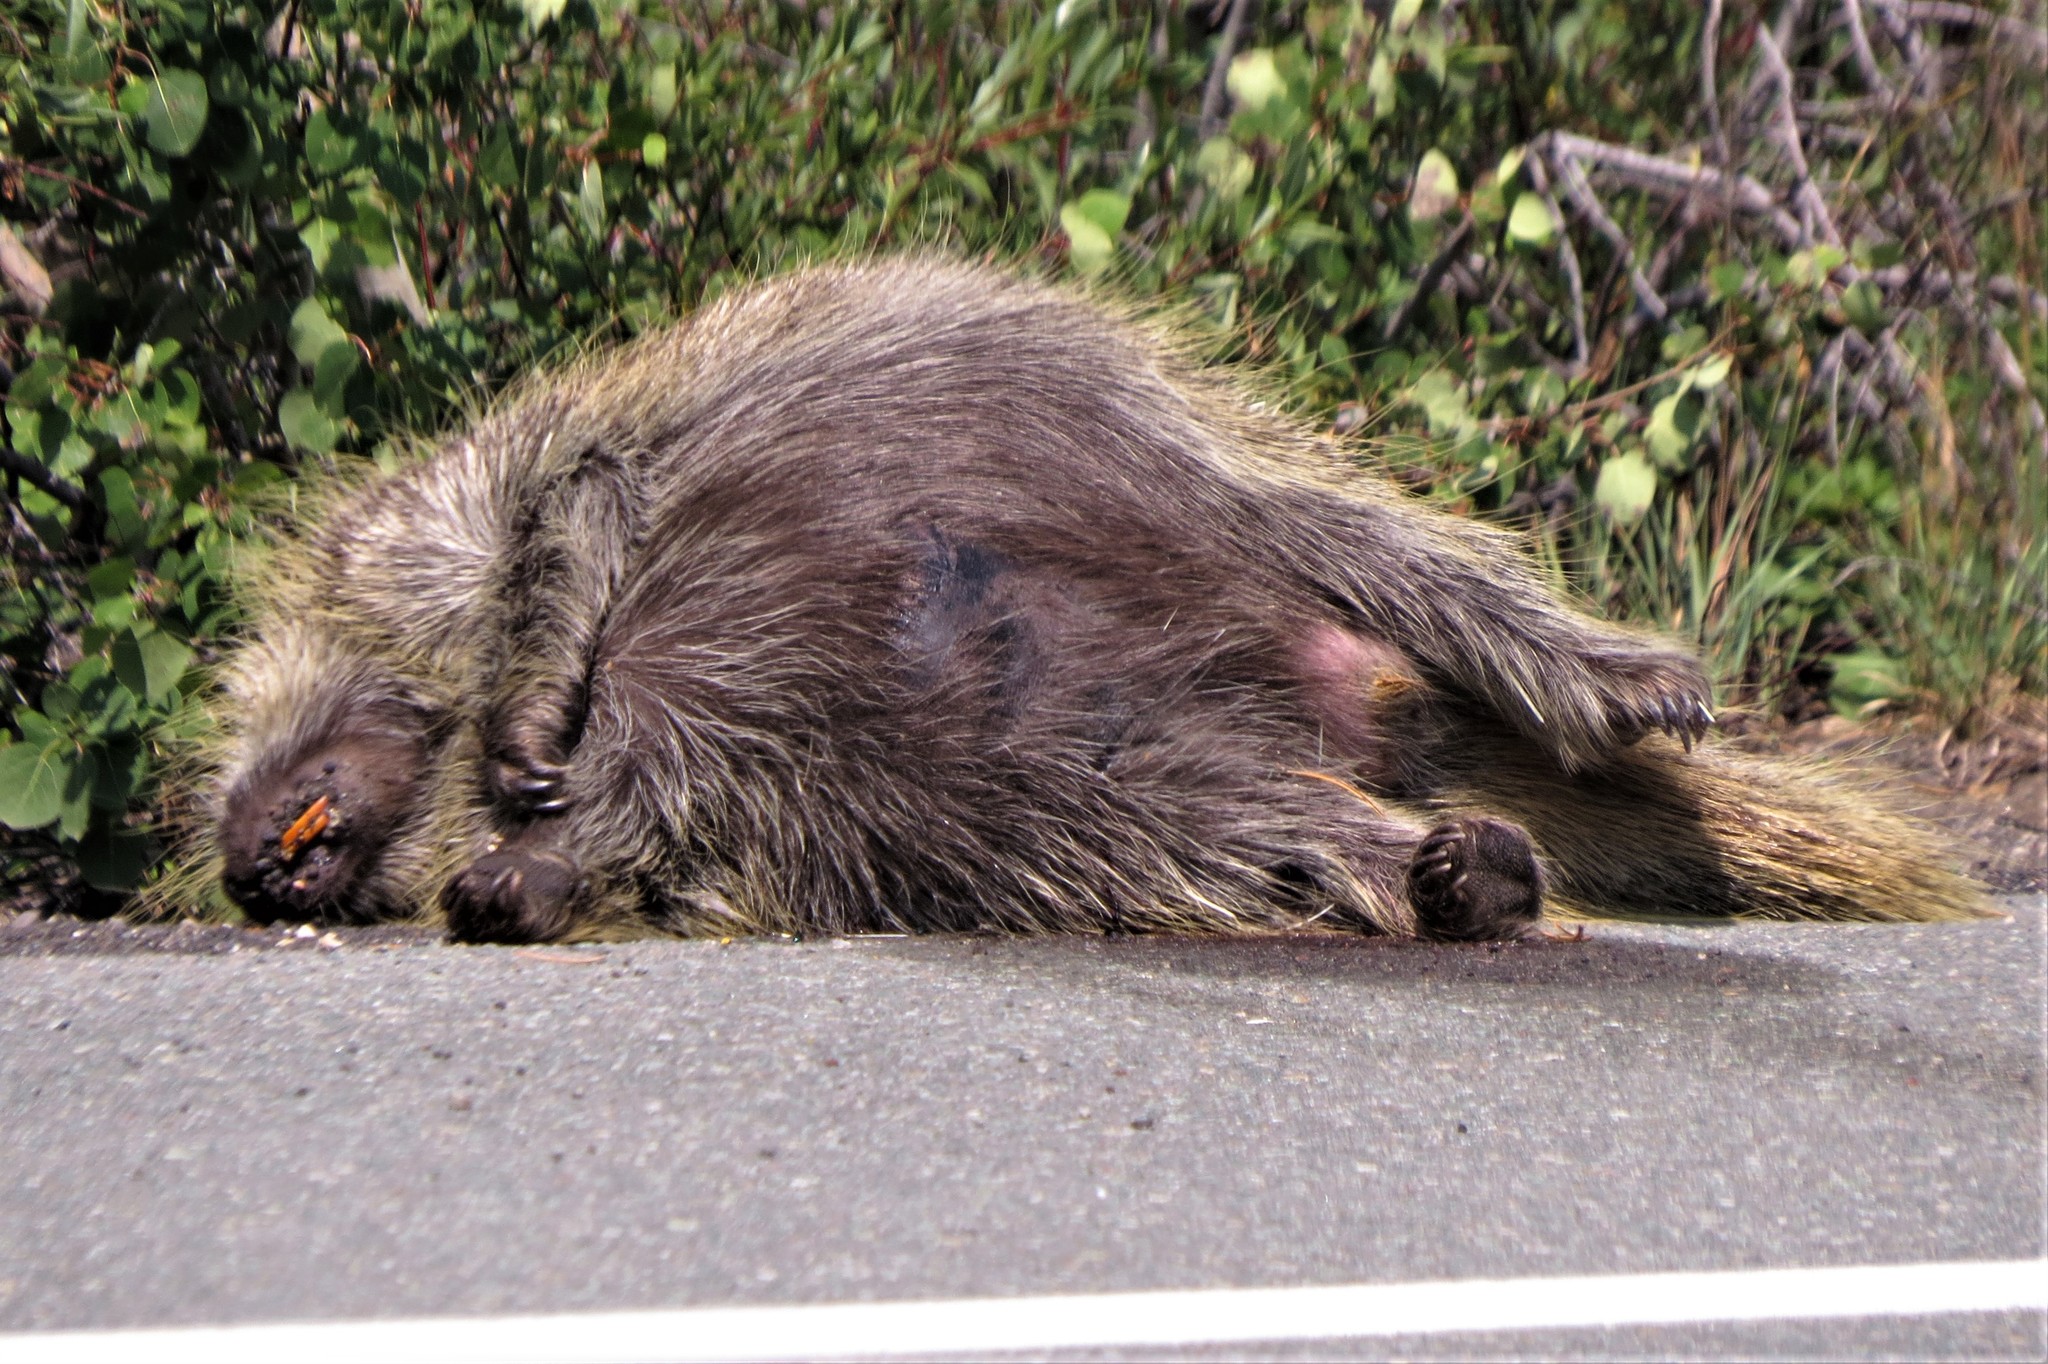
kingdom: Animalia
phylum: Chordata
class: Mammalia
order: Rodentia
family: Erethizontidae
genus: Erethizon
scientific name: Erethizon dorsatus
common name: North american porcupine
